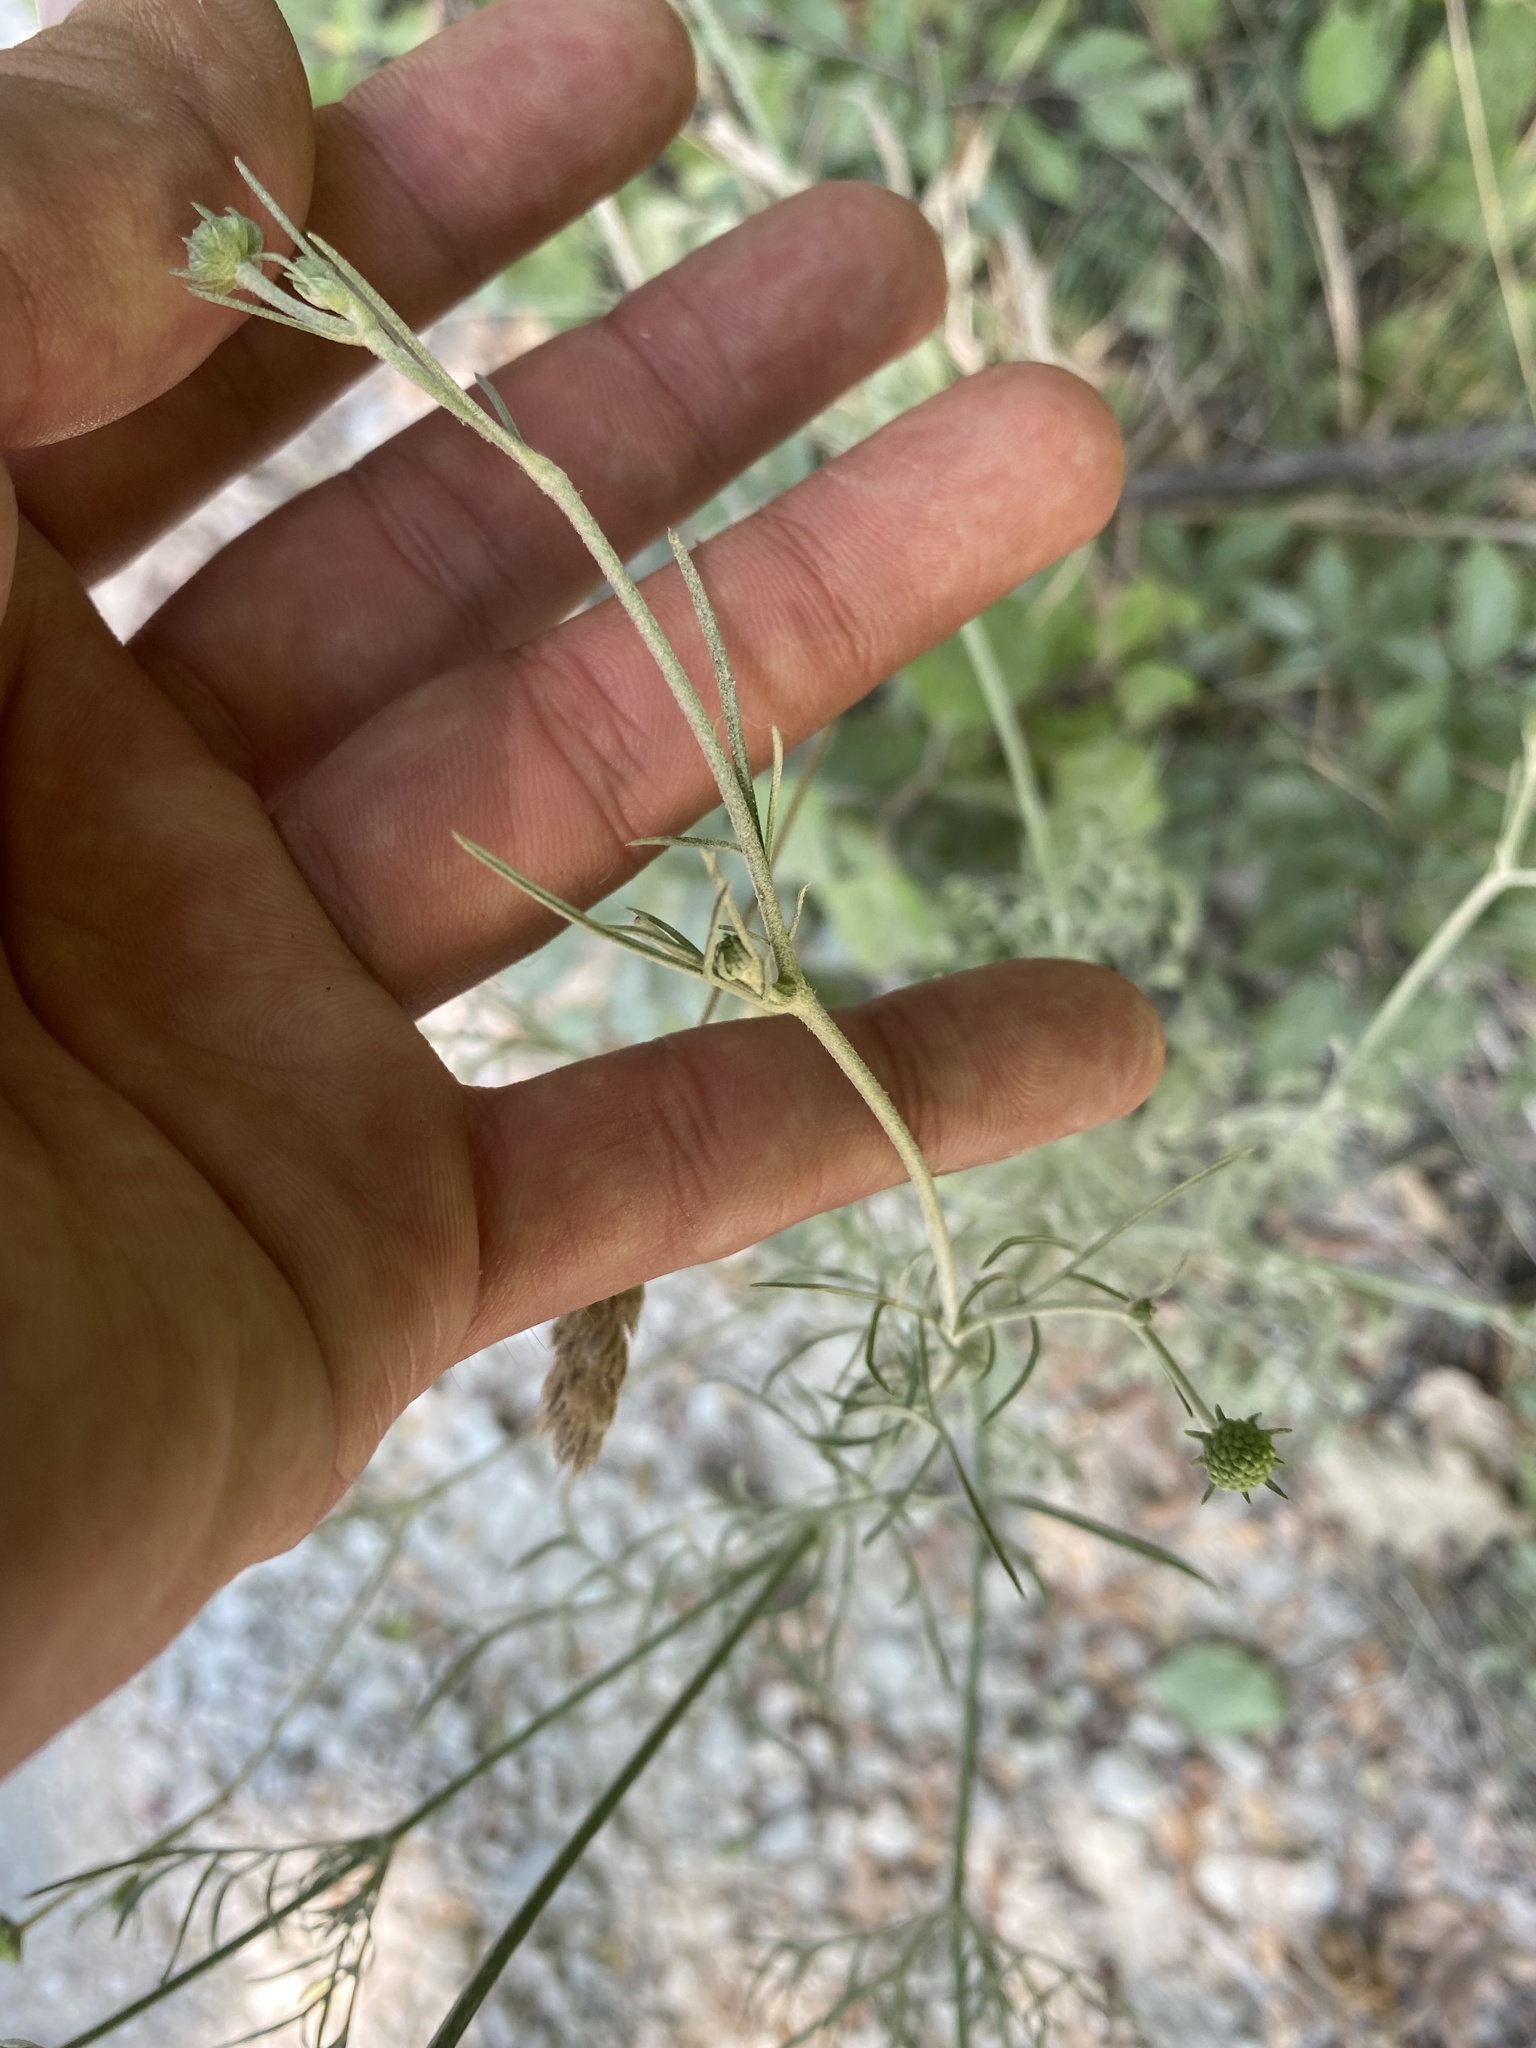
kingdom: Plantae
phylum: Tracheophyta
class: Magnoliopsida
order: Dipsacales
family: Caprifoliaceae
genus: Scabiosa
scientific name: Scabiosa ochroleuca
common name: Cream pincushions
